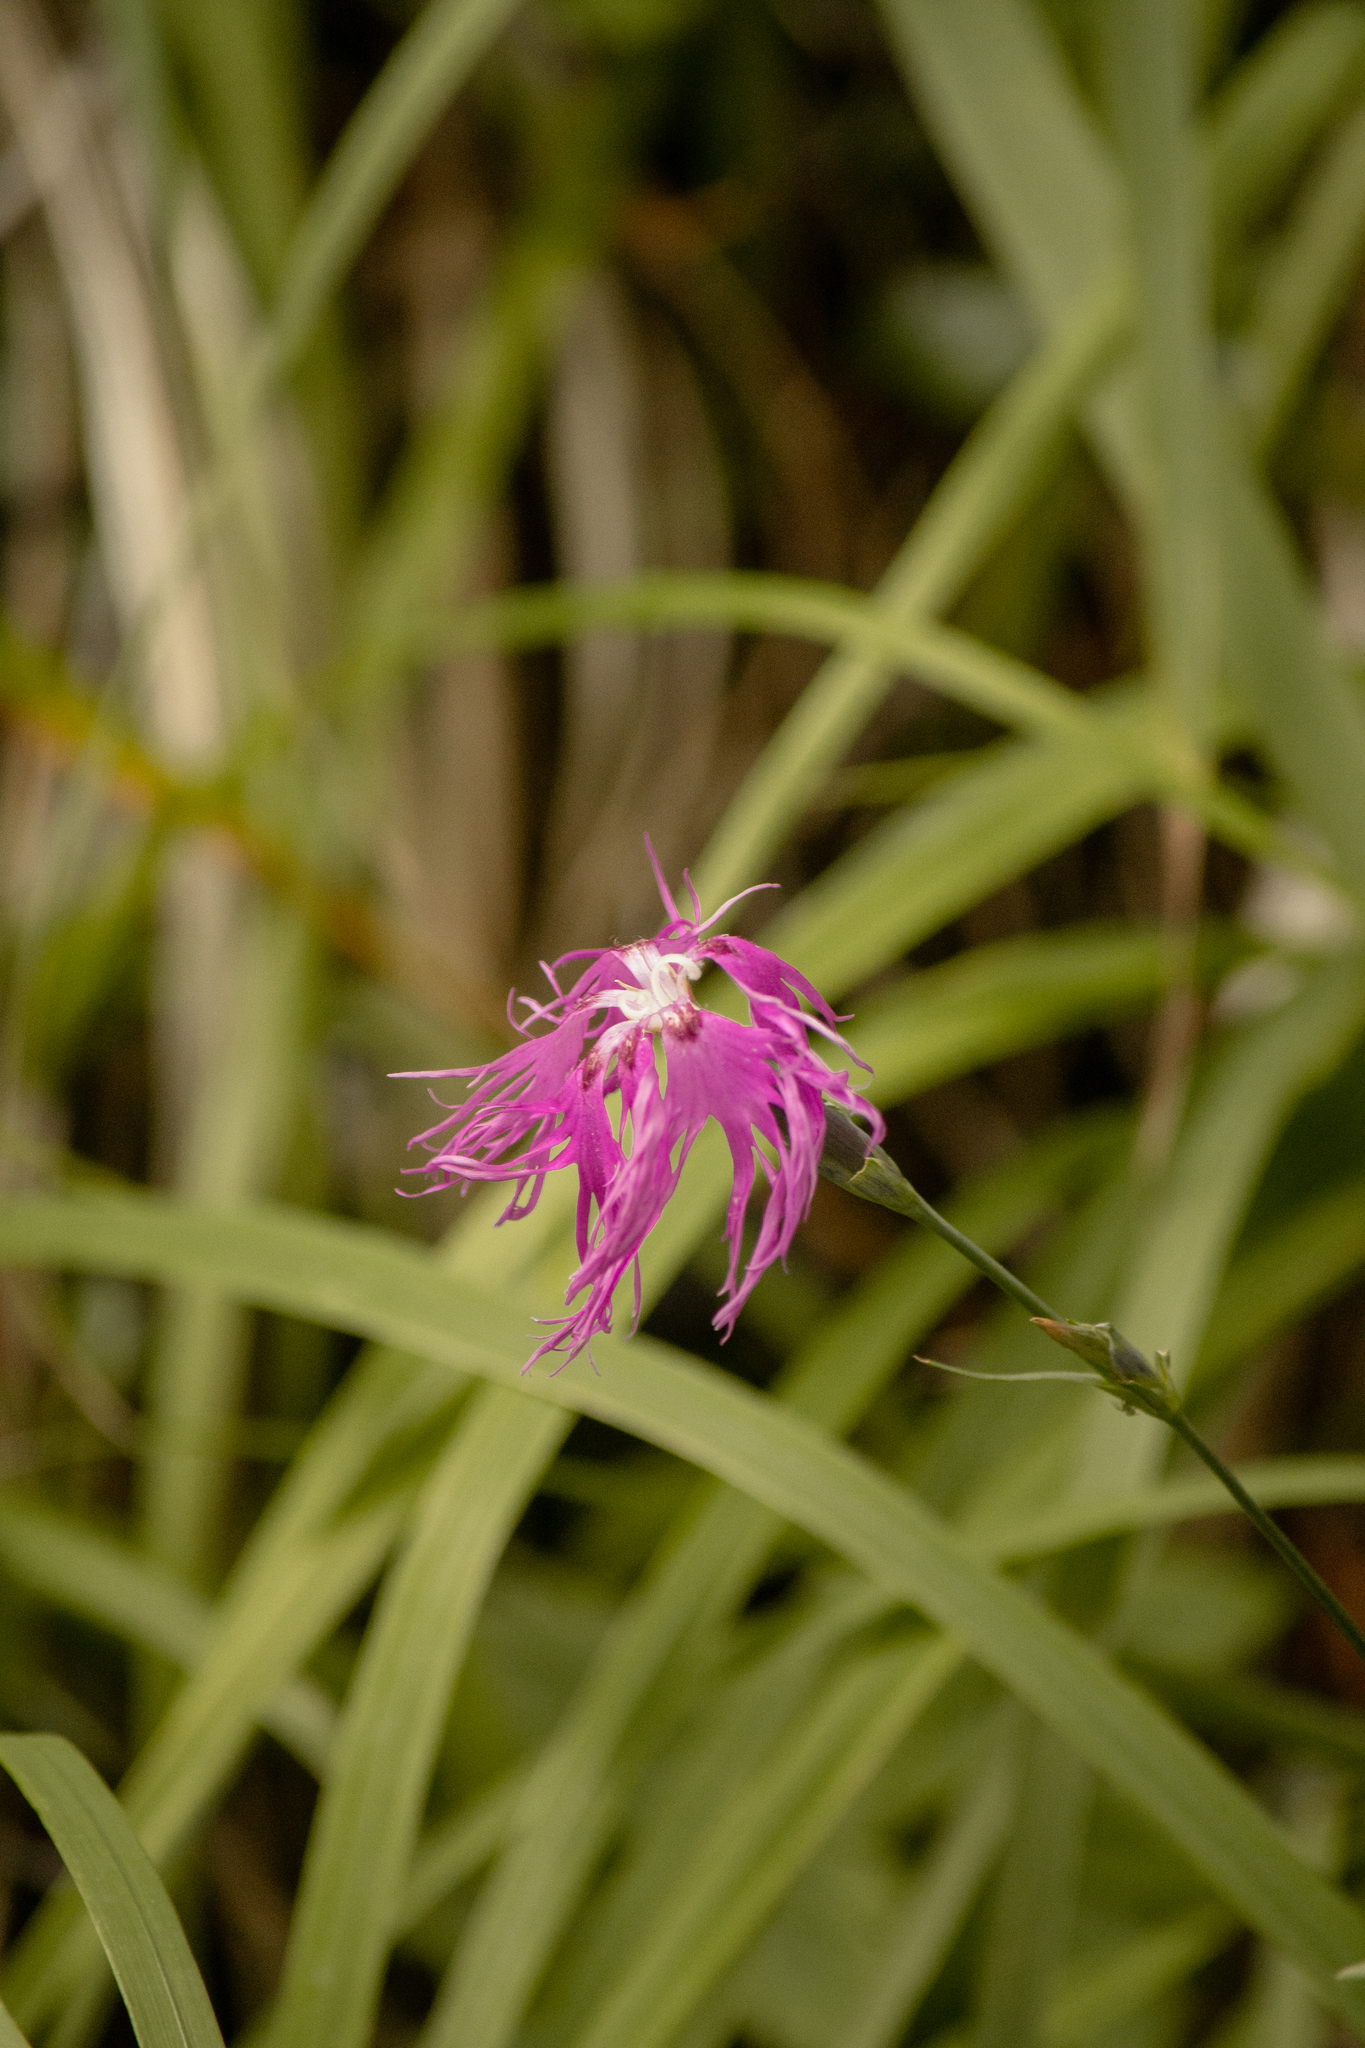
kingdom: Plantae
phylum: Tracheophyta
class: Magnoliopsida
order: Caryophyllales
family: Caryophyllaceae
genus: Dianthus
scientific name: Dianthus superbus
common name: Fringed pink
